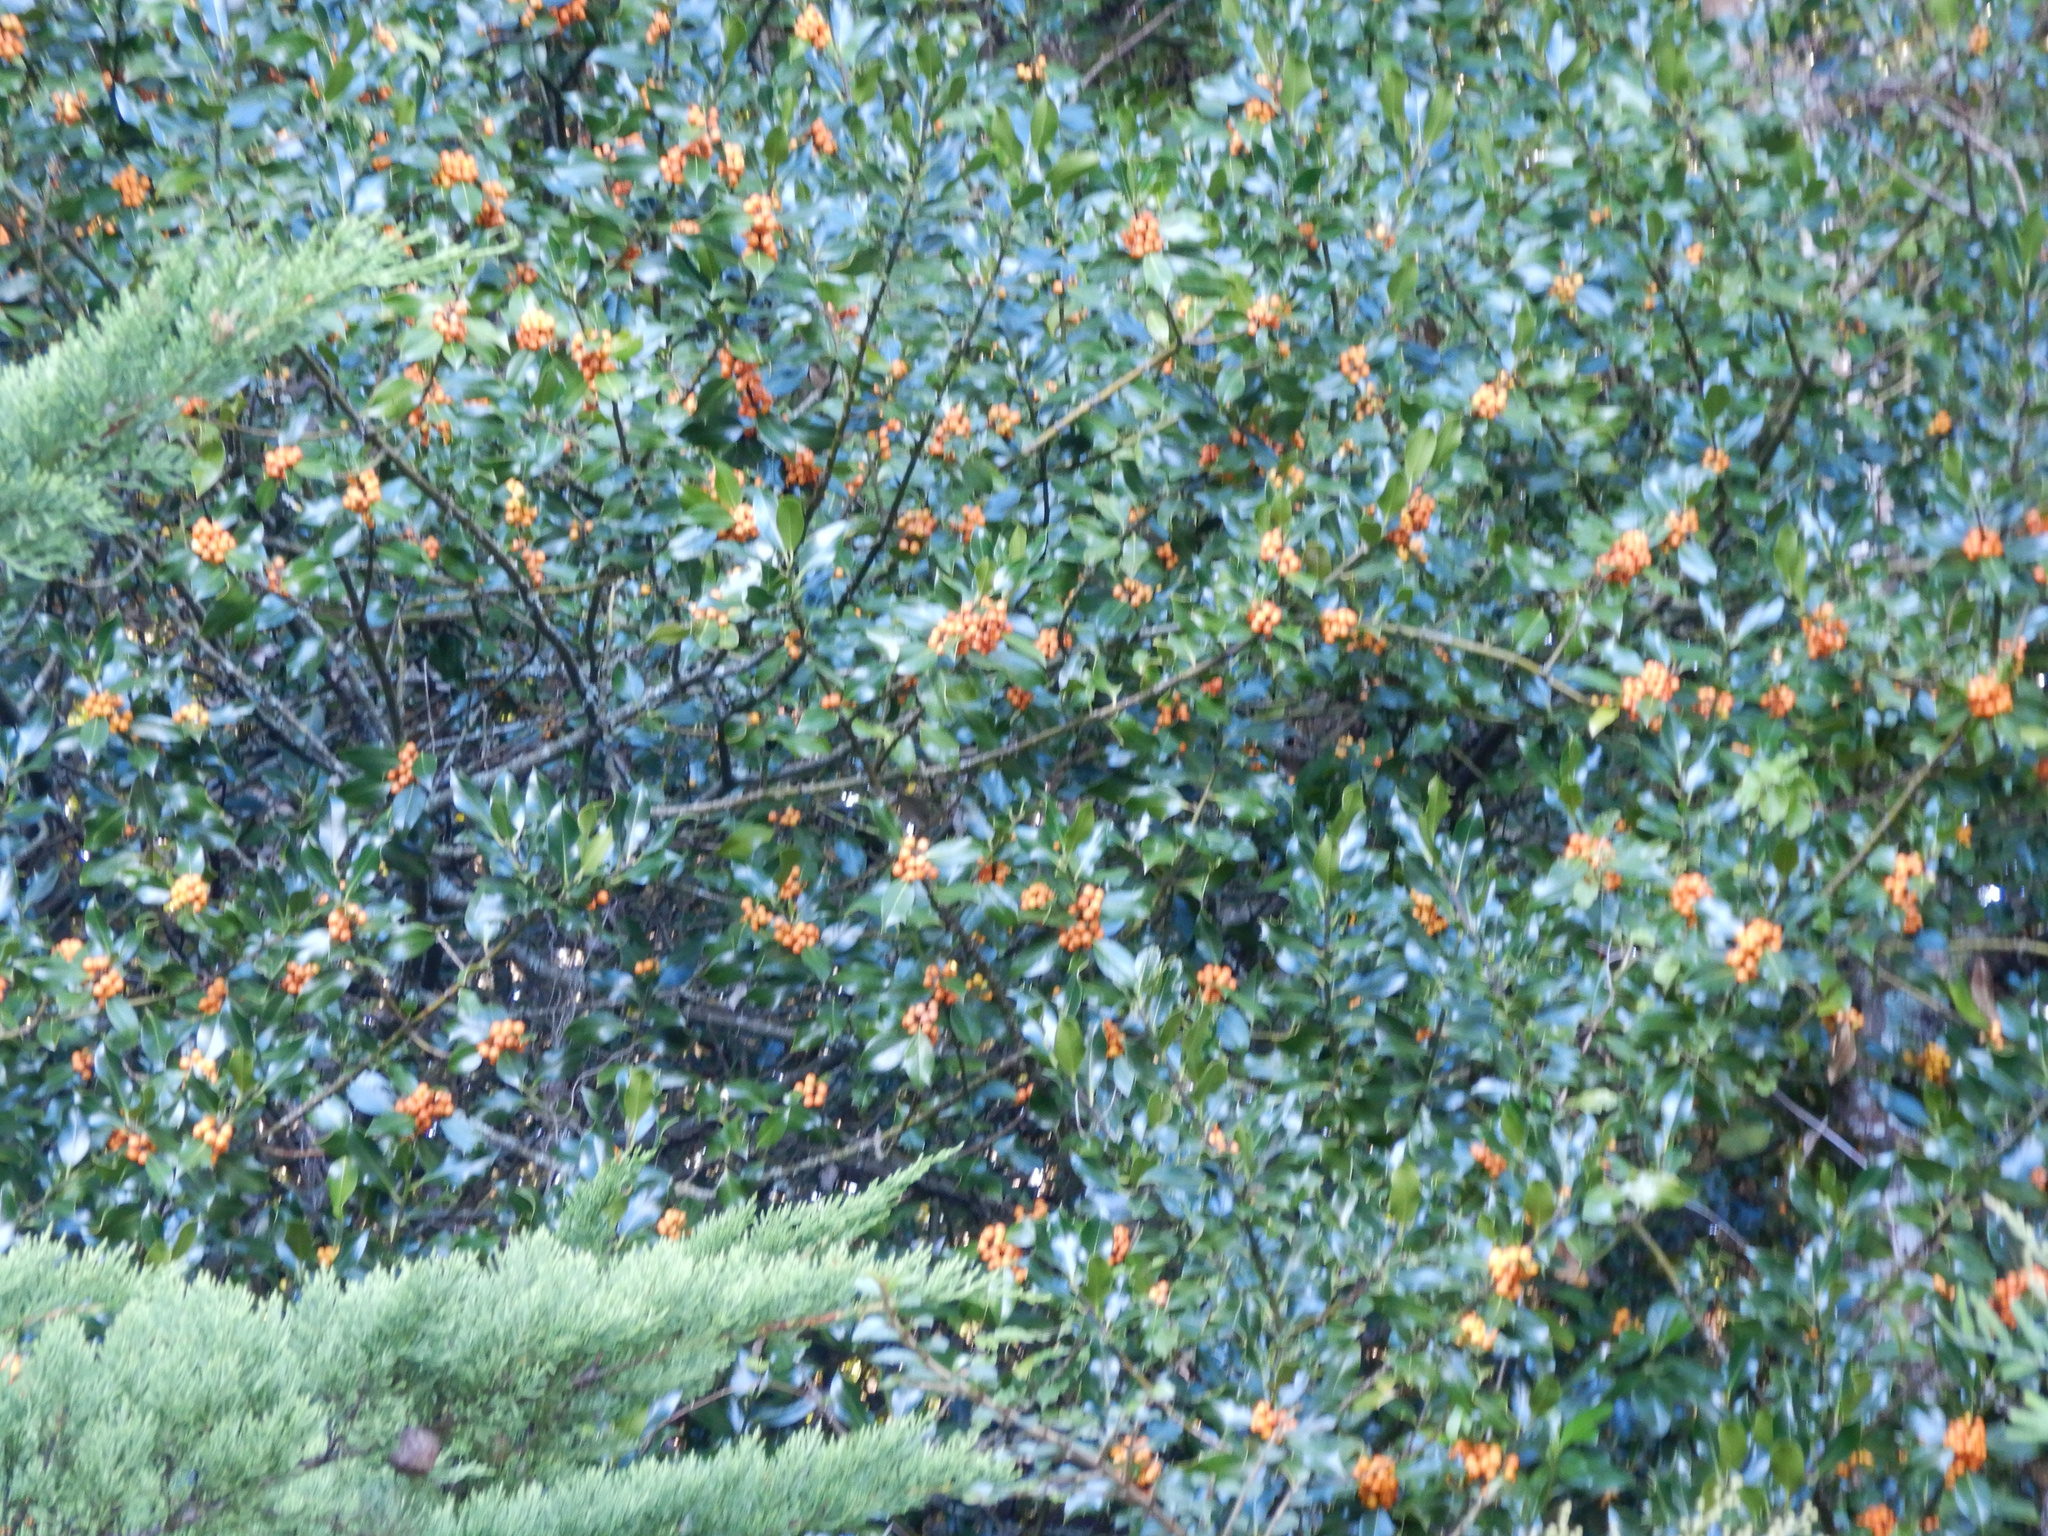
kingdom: Plantae
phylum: Tracheophyta
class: Magnoliopsida
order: Aquifoliales
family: Aquifoliaceae
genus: Ilex
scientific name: Ilex aquifolium
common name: English holly
